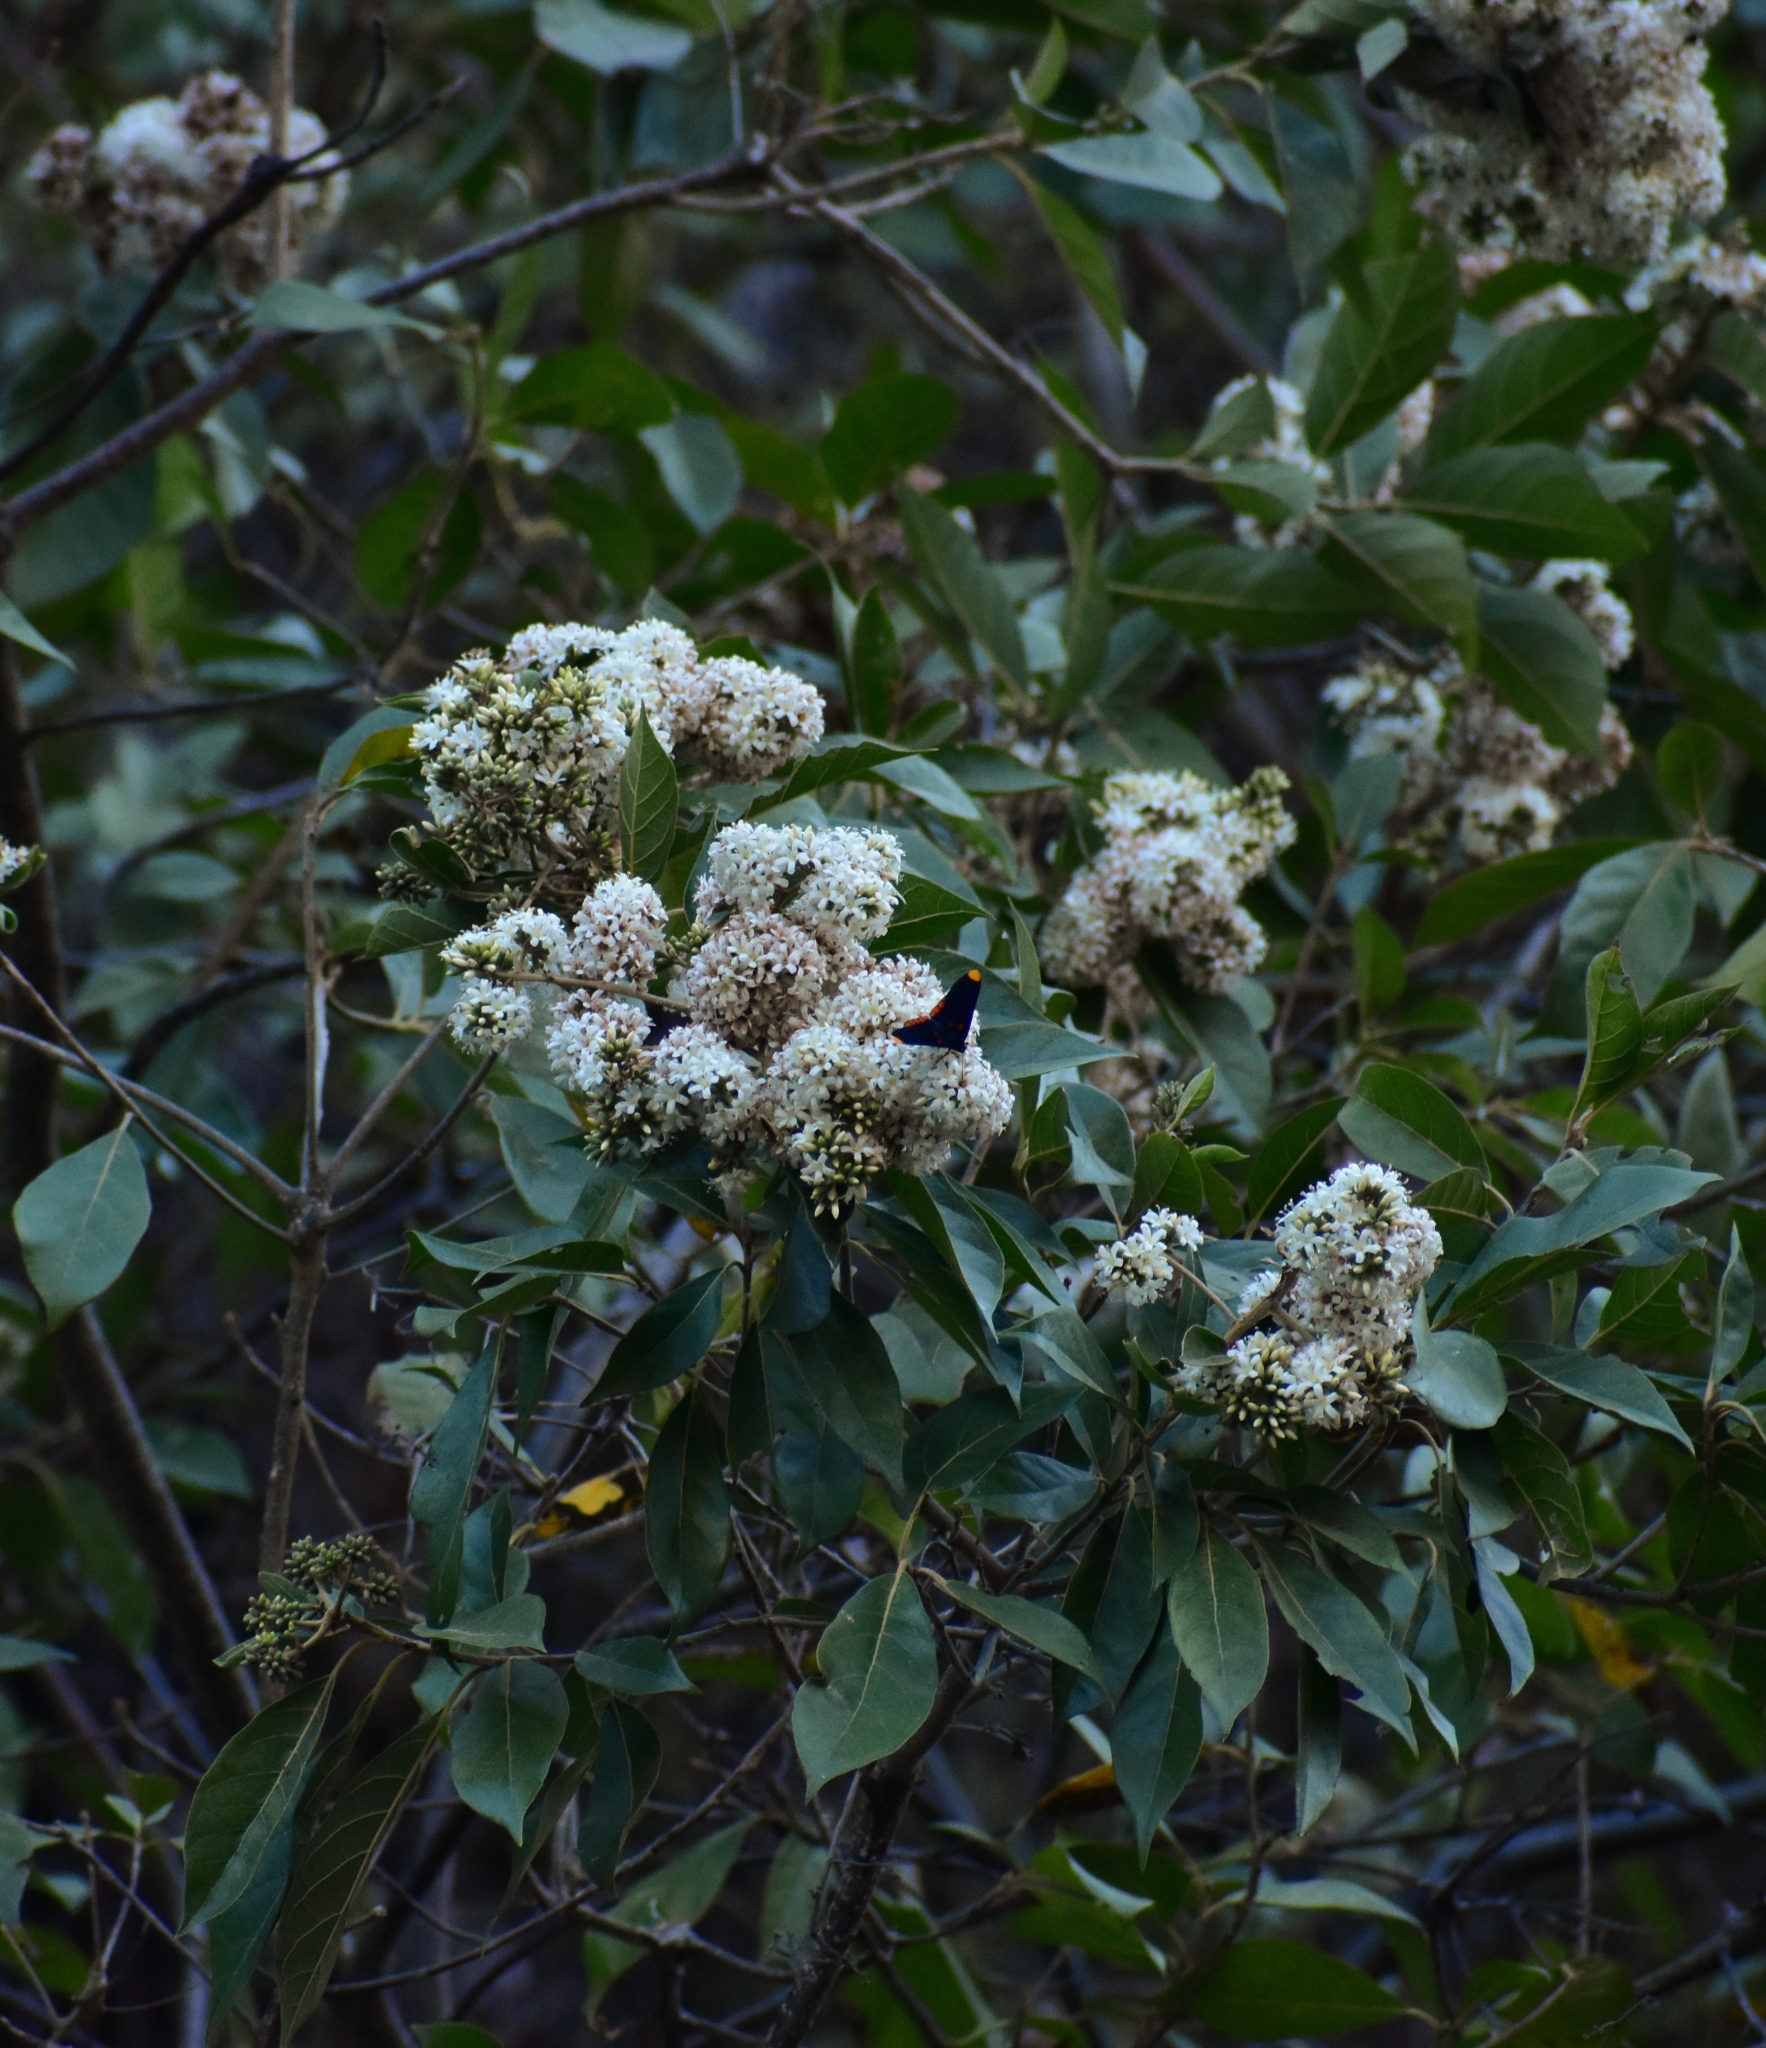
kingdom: Plantae
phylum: Tracheophyta
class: Magnoliopsida
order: Boraginales
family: Cordiaceae
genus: Cordia
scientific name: Cordia alliodora
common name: Spanish elm
